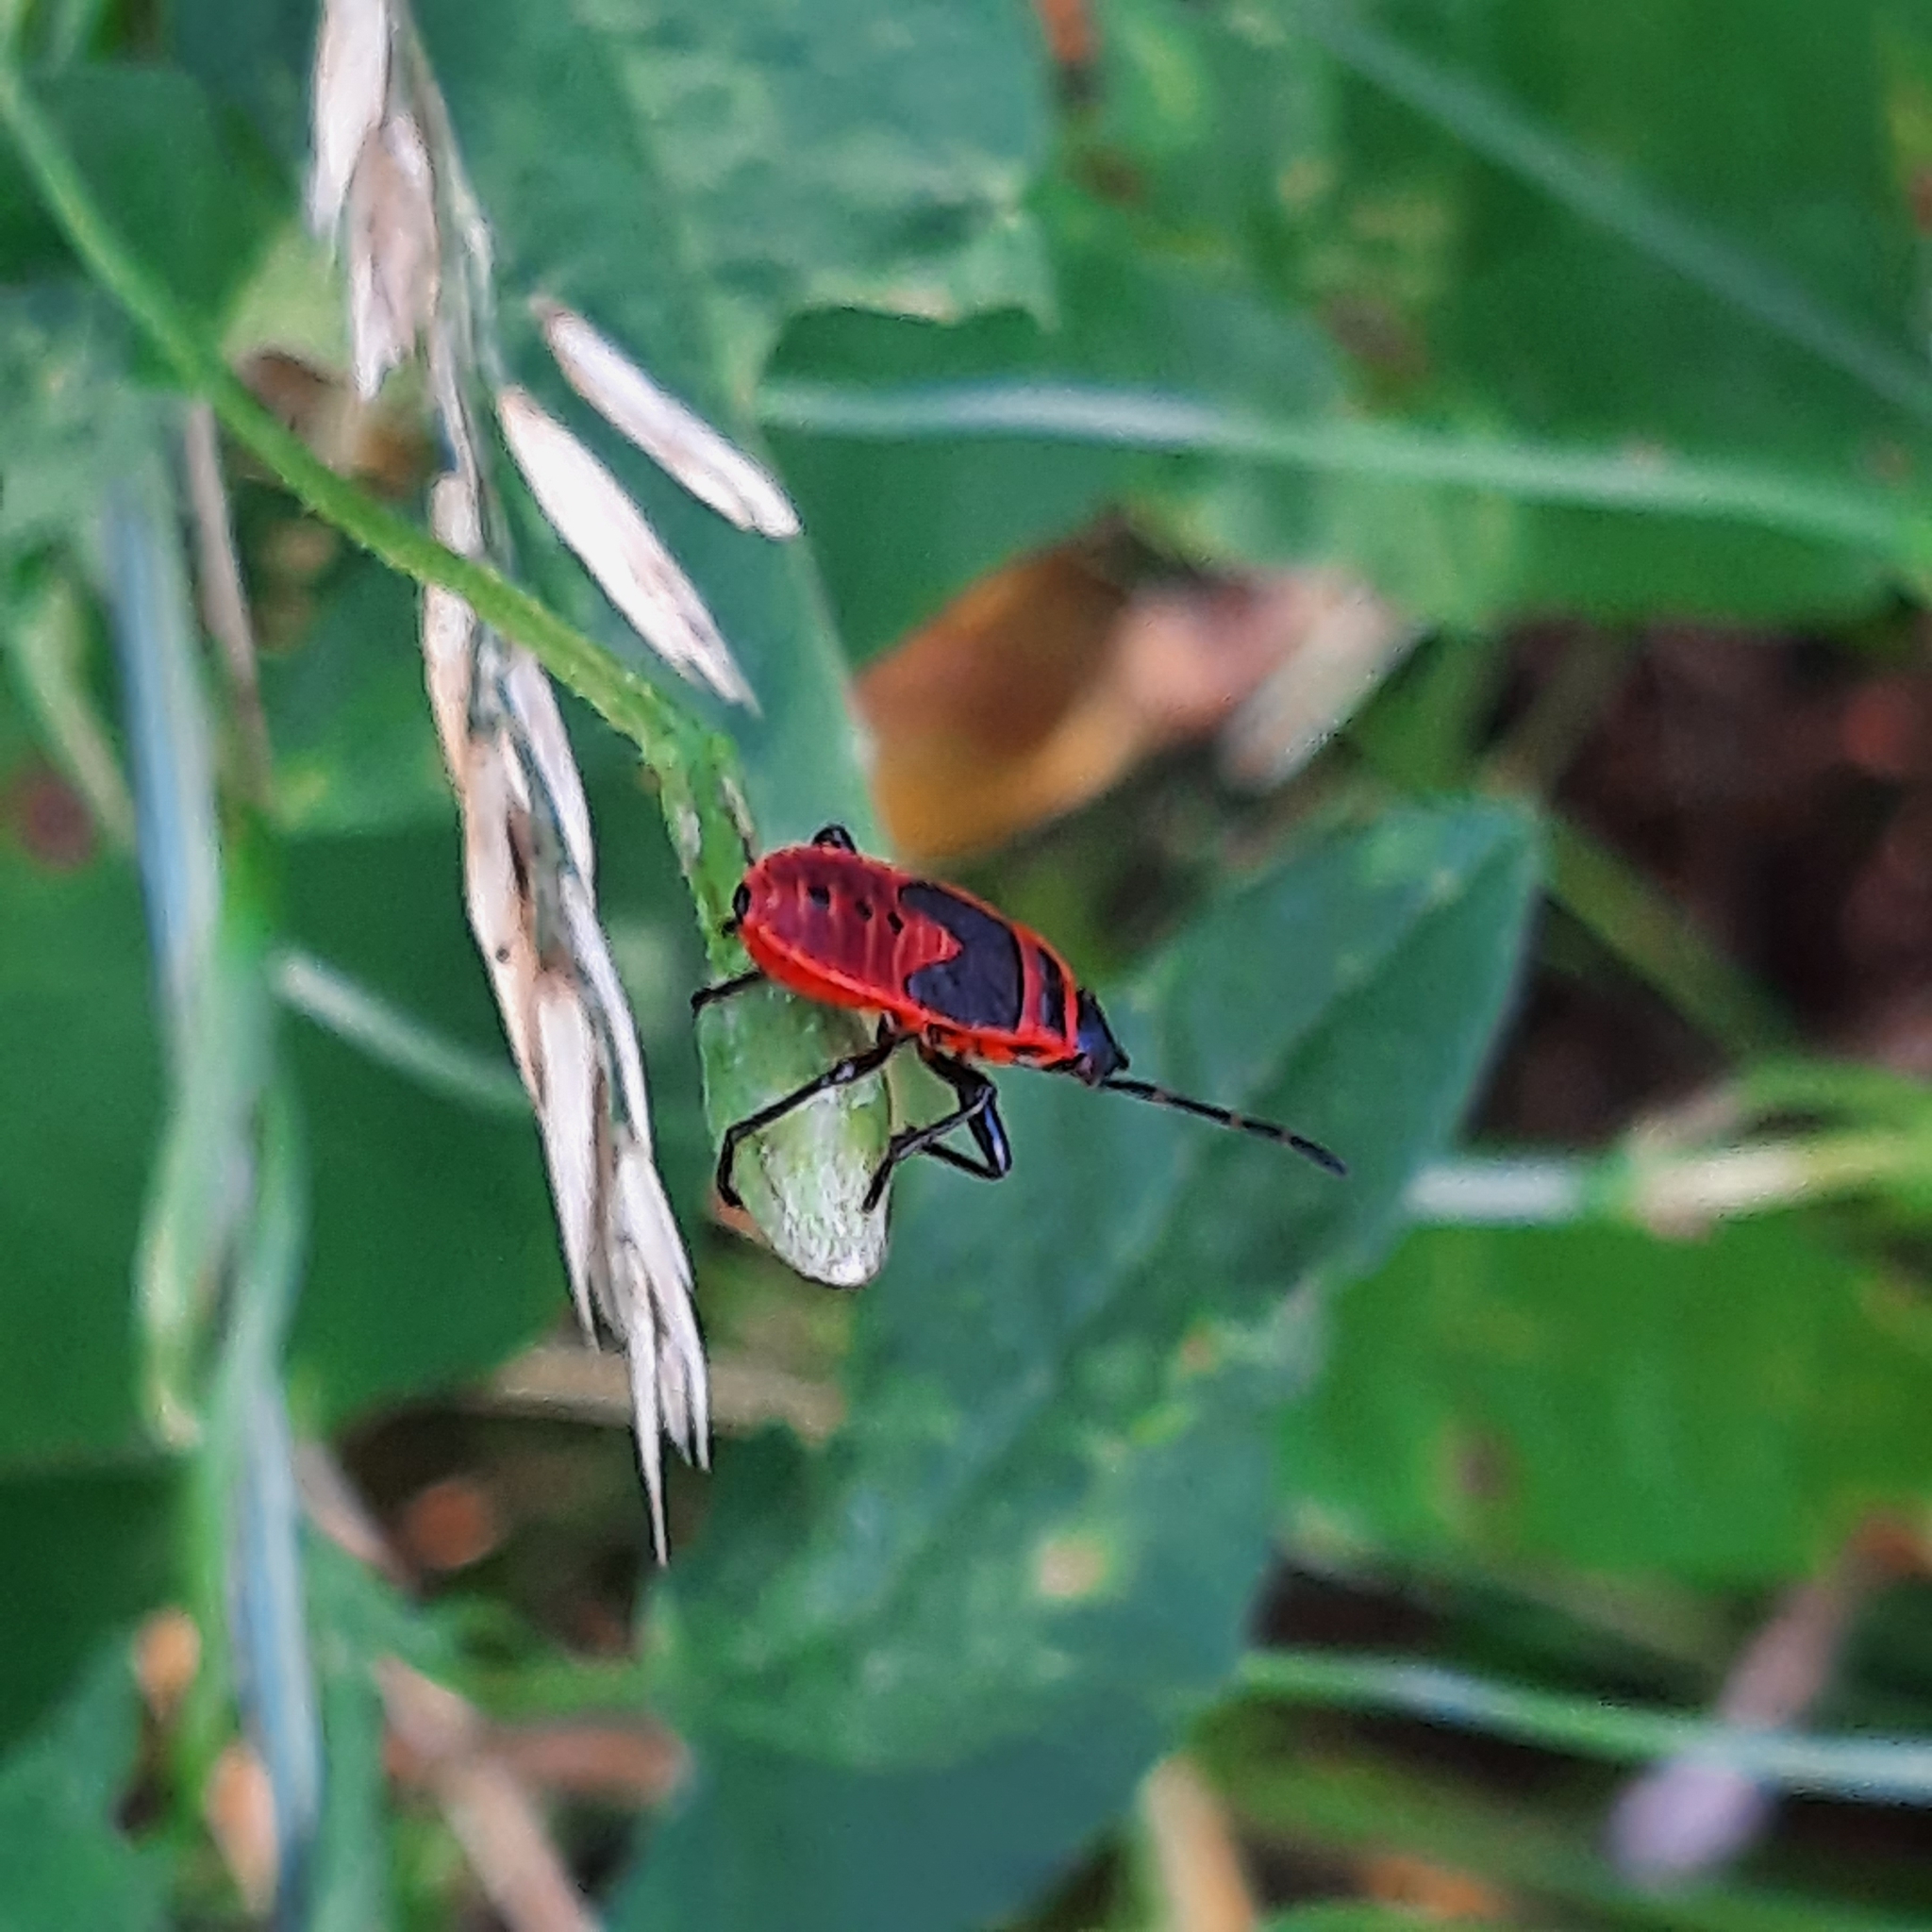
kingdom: Animalia
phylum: Arthropoda
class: Insecta
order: Hemiptera
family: Pyrrhocoridae
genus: Pyrrhocoris
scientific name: Pyrrhocoris apterus
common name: Firebug
